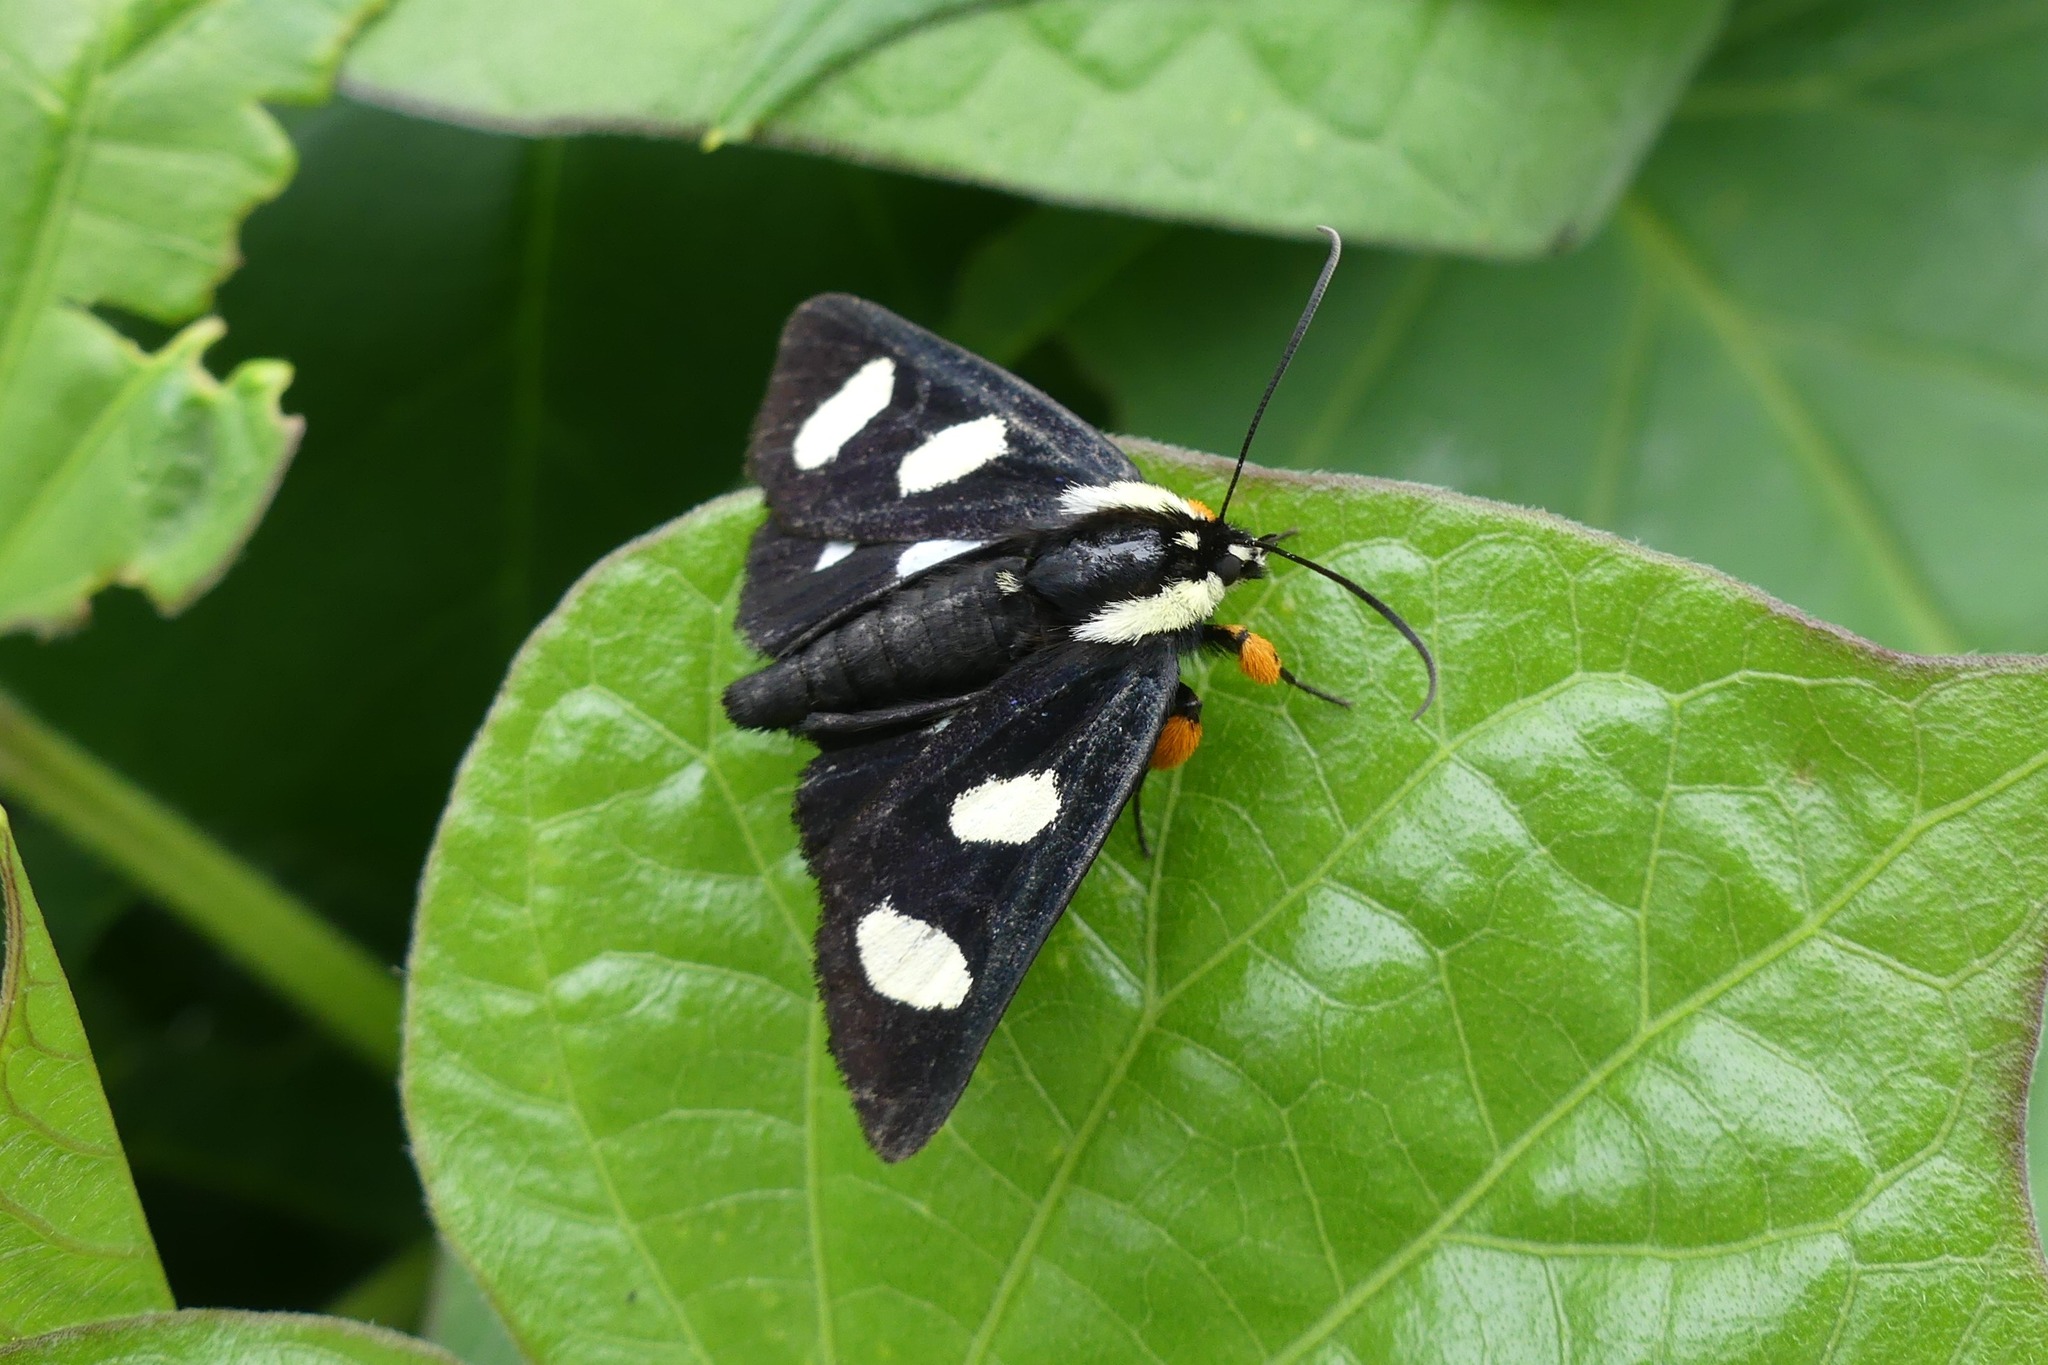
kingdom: Animalia
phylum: Arthropoda
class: Insecta
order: Lepidoptera
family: Noctuidae
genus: Alypia
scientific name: Alypia octomaculata
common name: Eight-spotted forester
